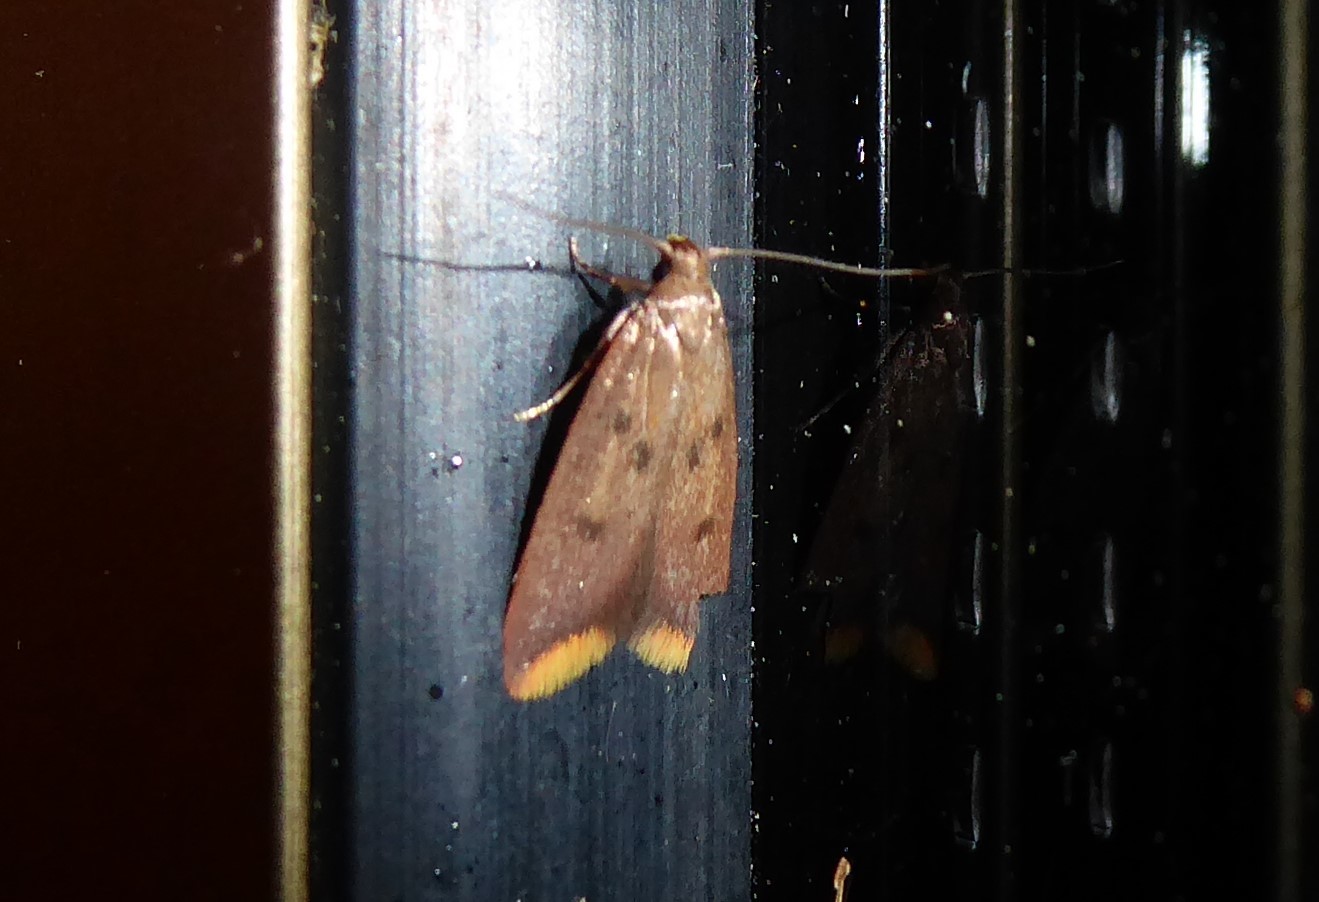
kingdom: Animalia
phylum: Arthropoda
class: Insecta
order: Lepidoptera
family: Oecophoridae
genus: Tachystola
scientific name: Tachystola acroxantha
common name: Ruddy streak
